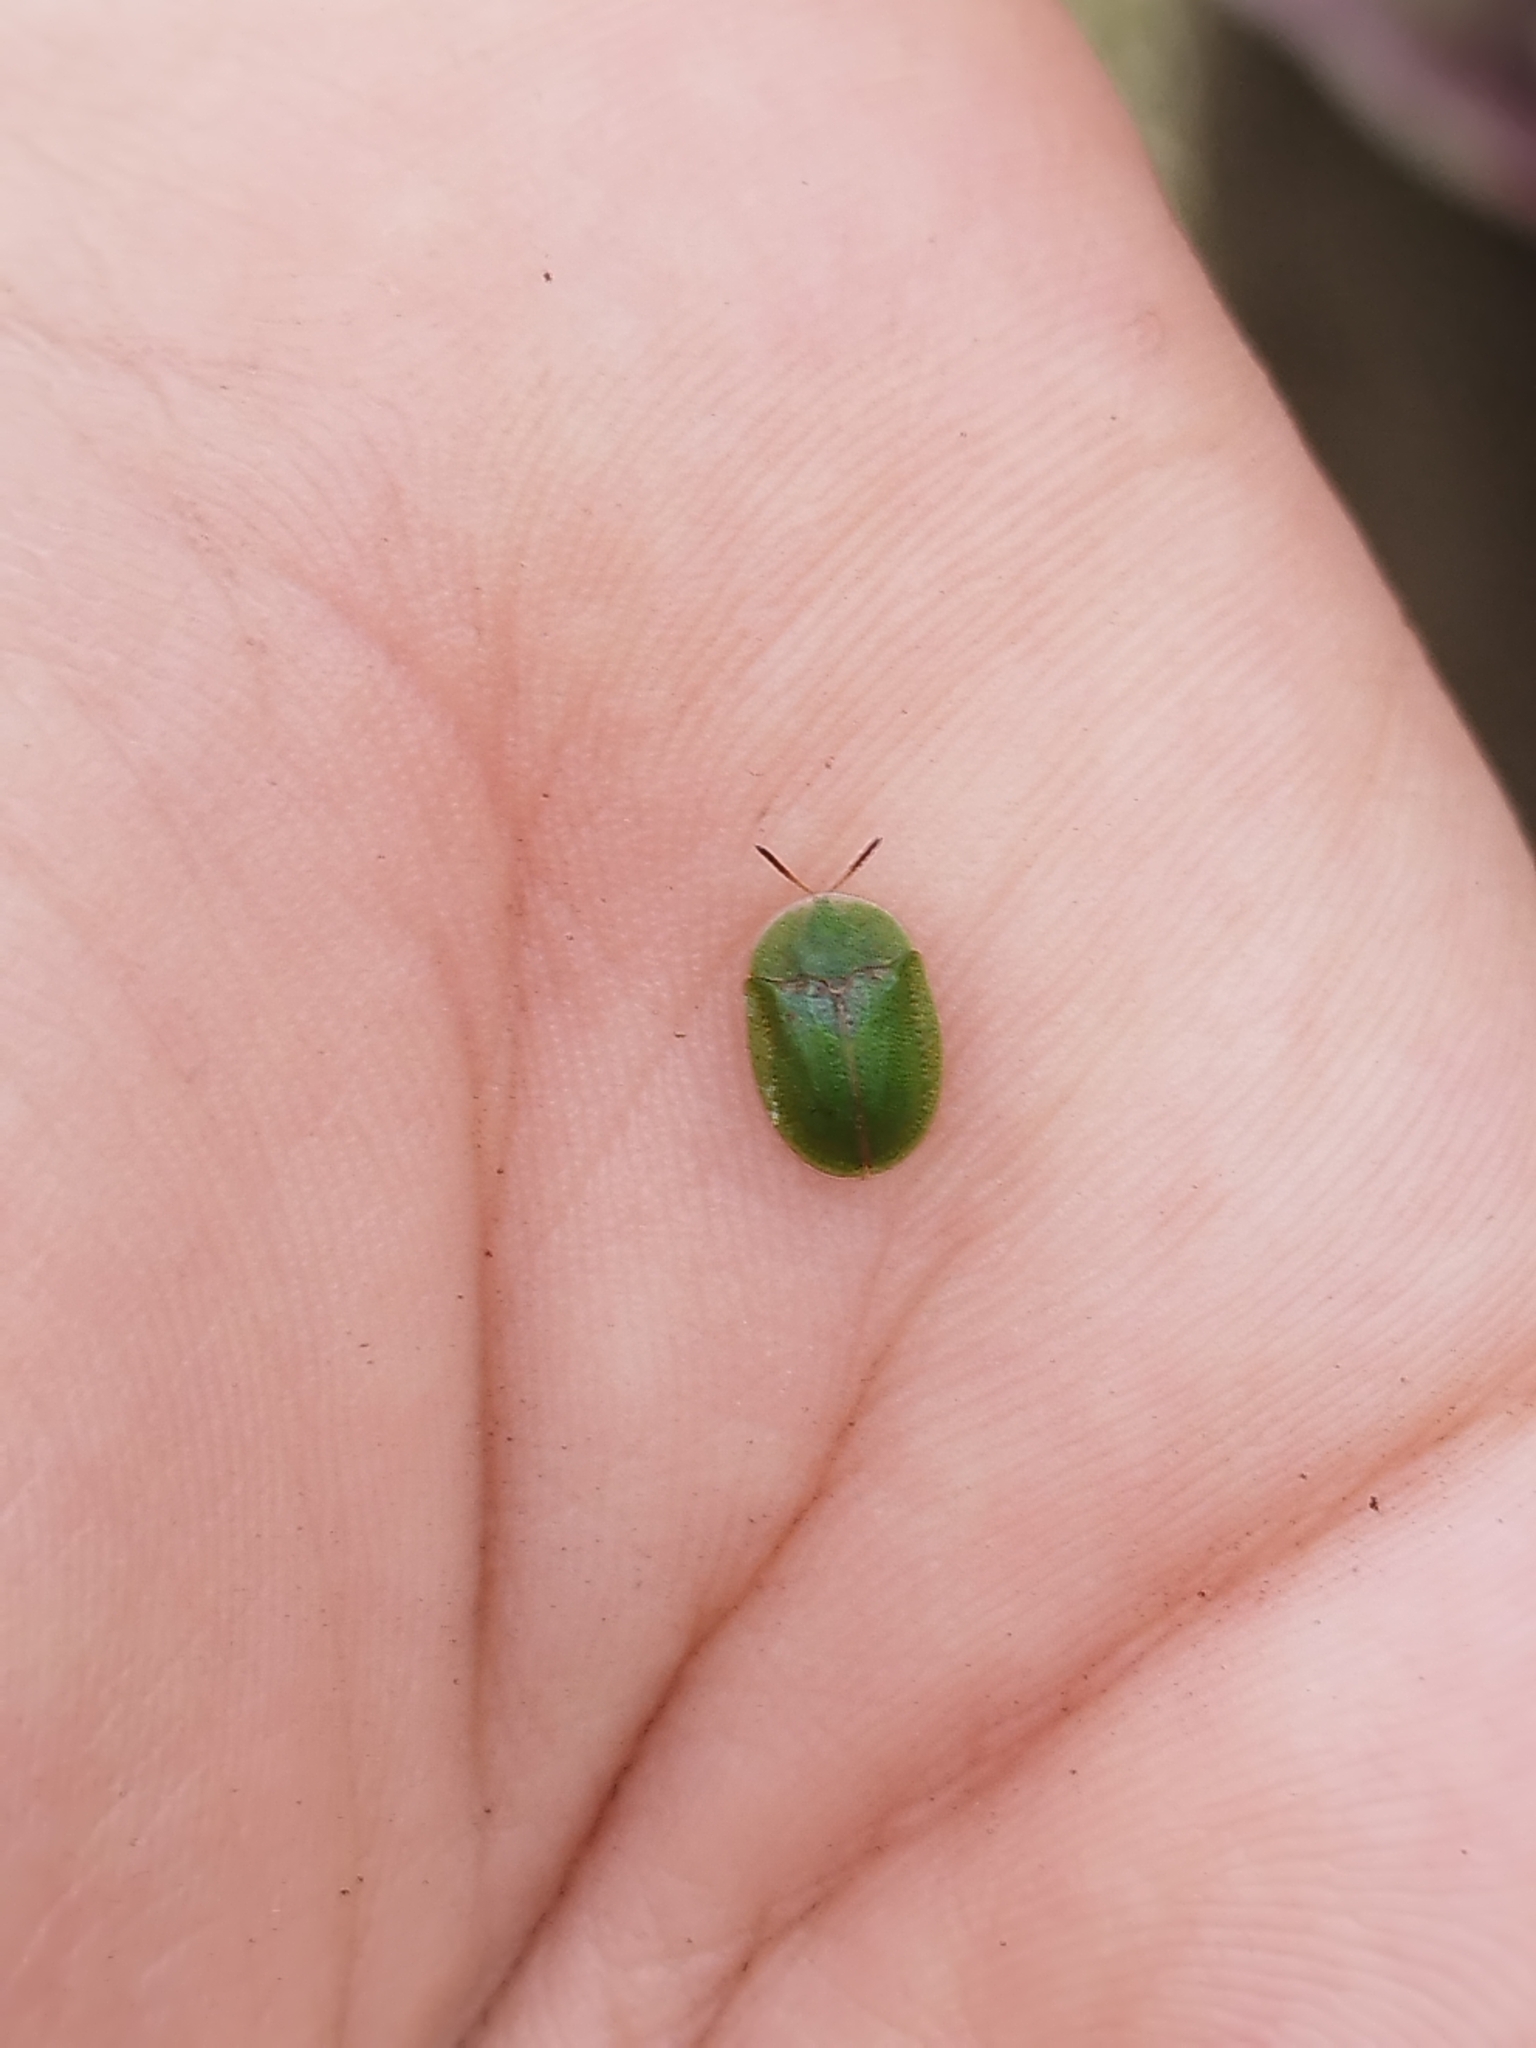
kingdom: Animalia
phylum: Arthropoda
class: Insecta
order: Coleoptera
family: Chrysomelidae
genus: Cassida
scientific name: Cassida rubiginosa
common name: Thistle tortoise beetle
